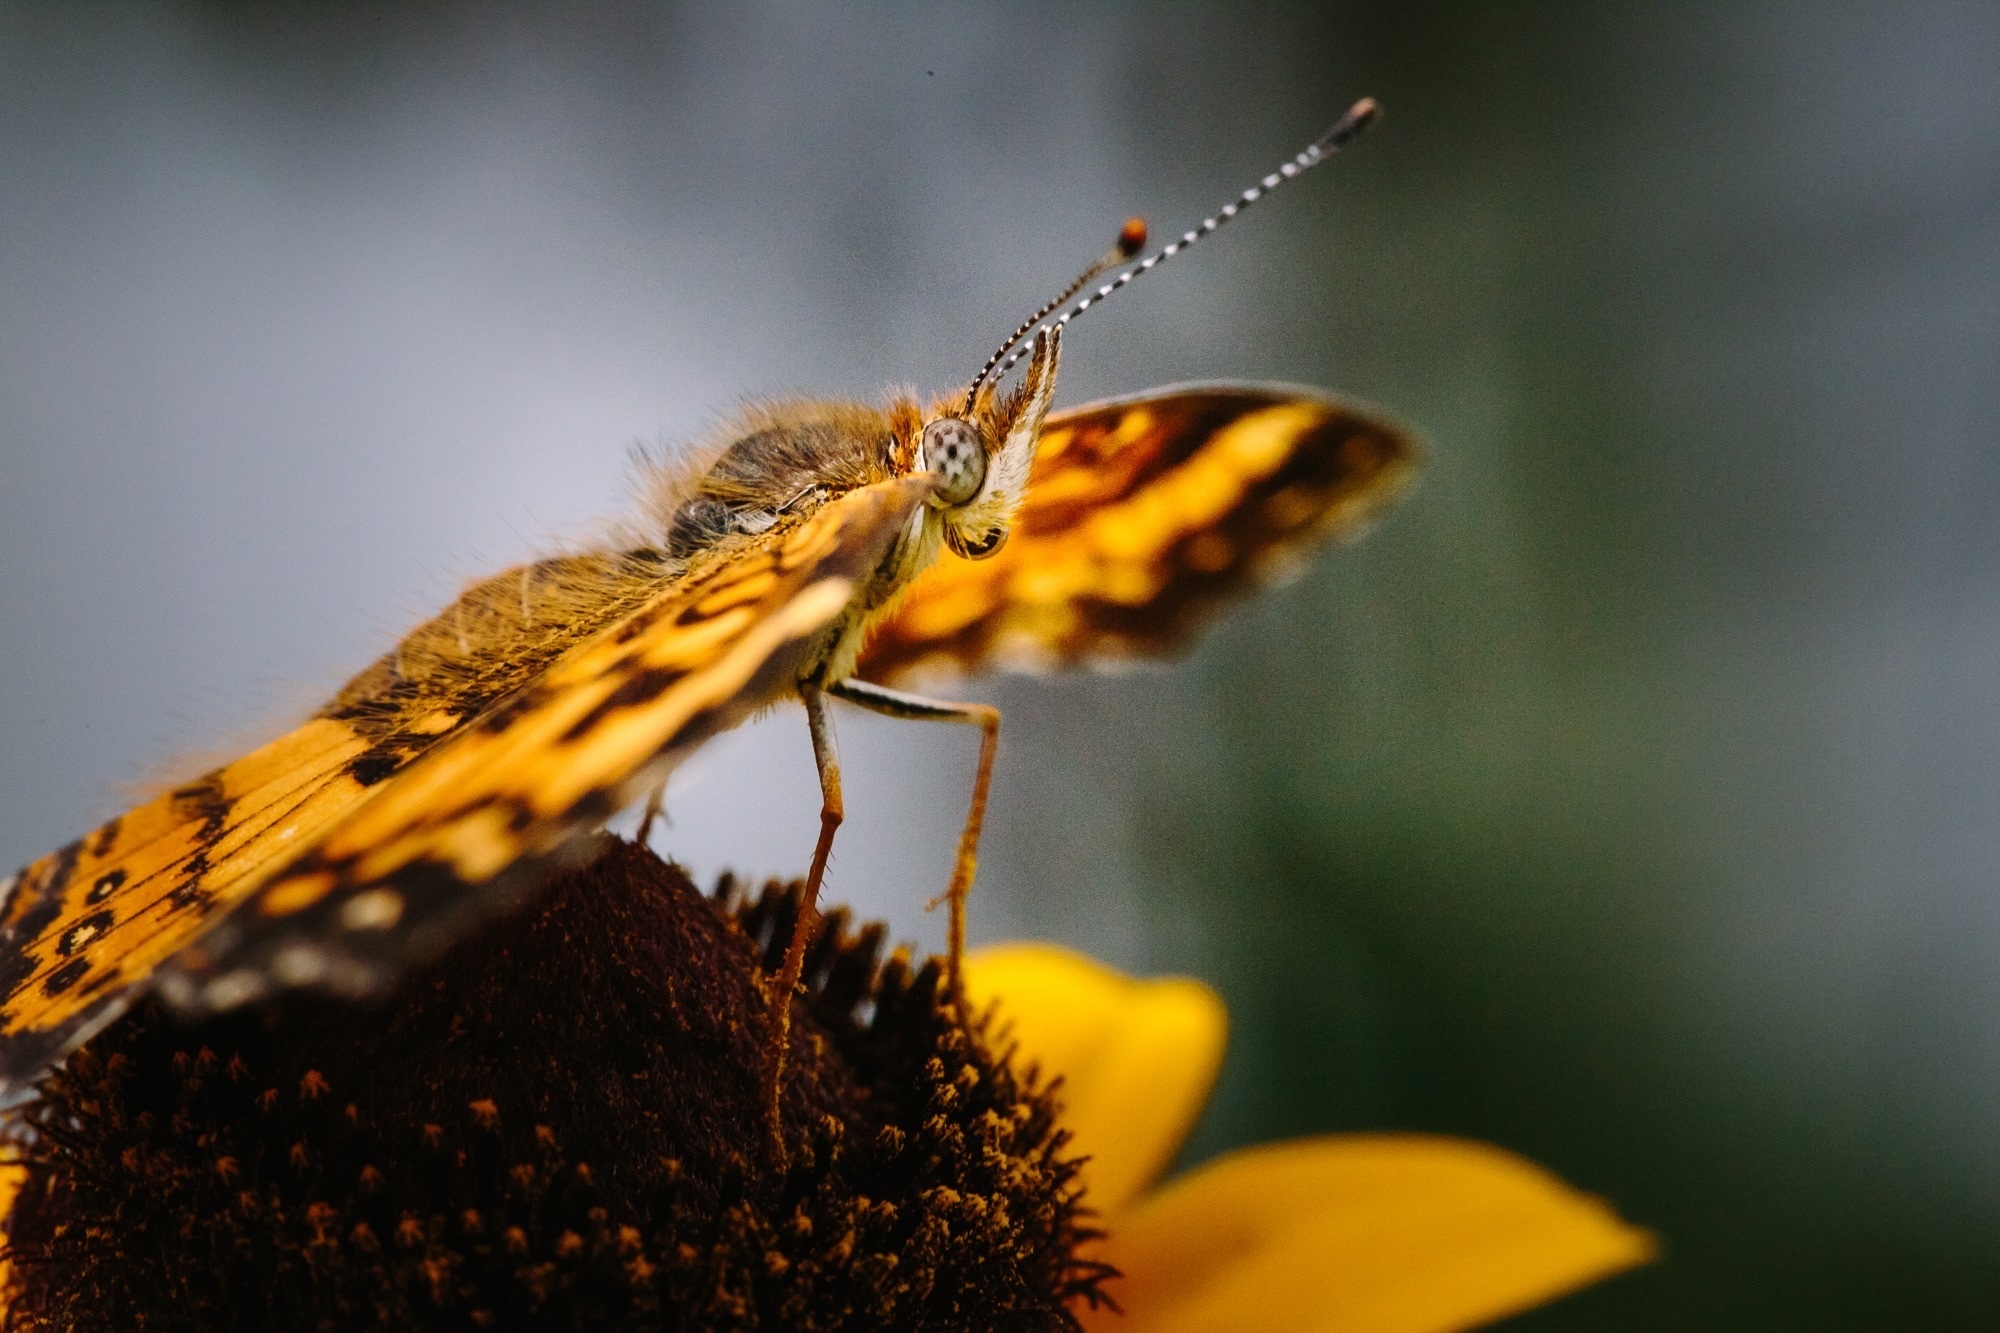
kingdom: Animalia
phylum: Arthropoda
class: Insecta
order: Lepidoptera
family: Nymphalidae
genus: Chlosyne
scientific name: Chlosyne nycteis
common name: Silvery checkerspot
